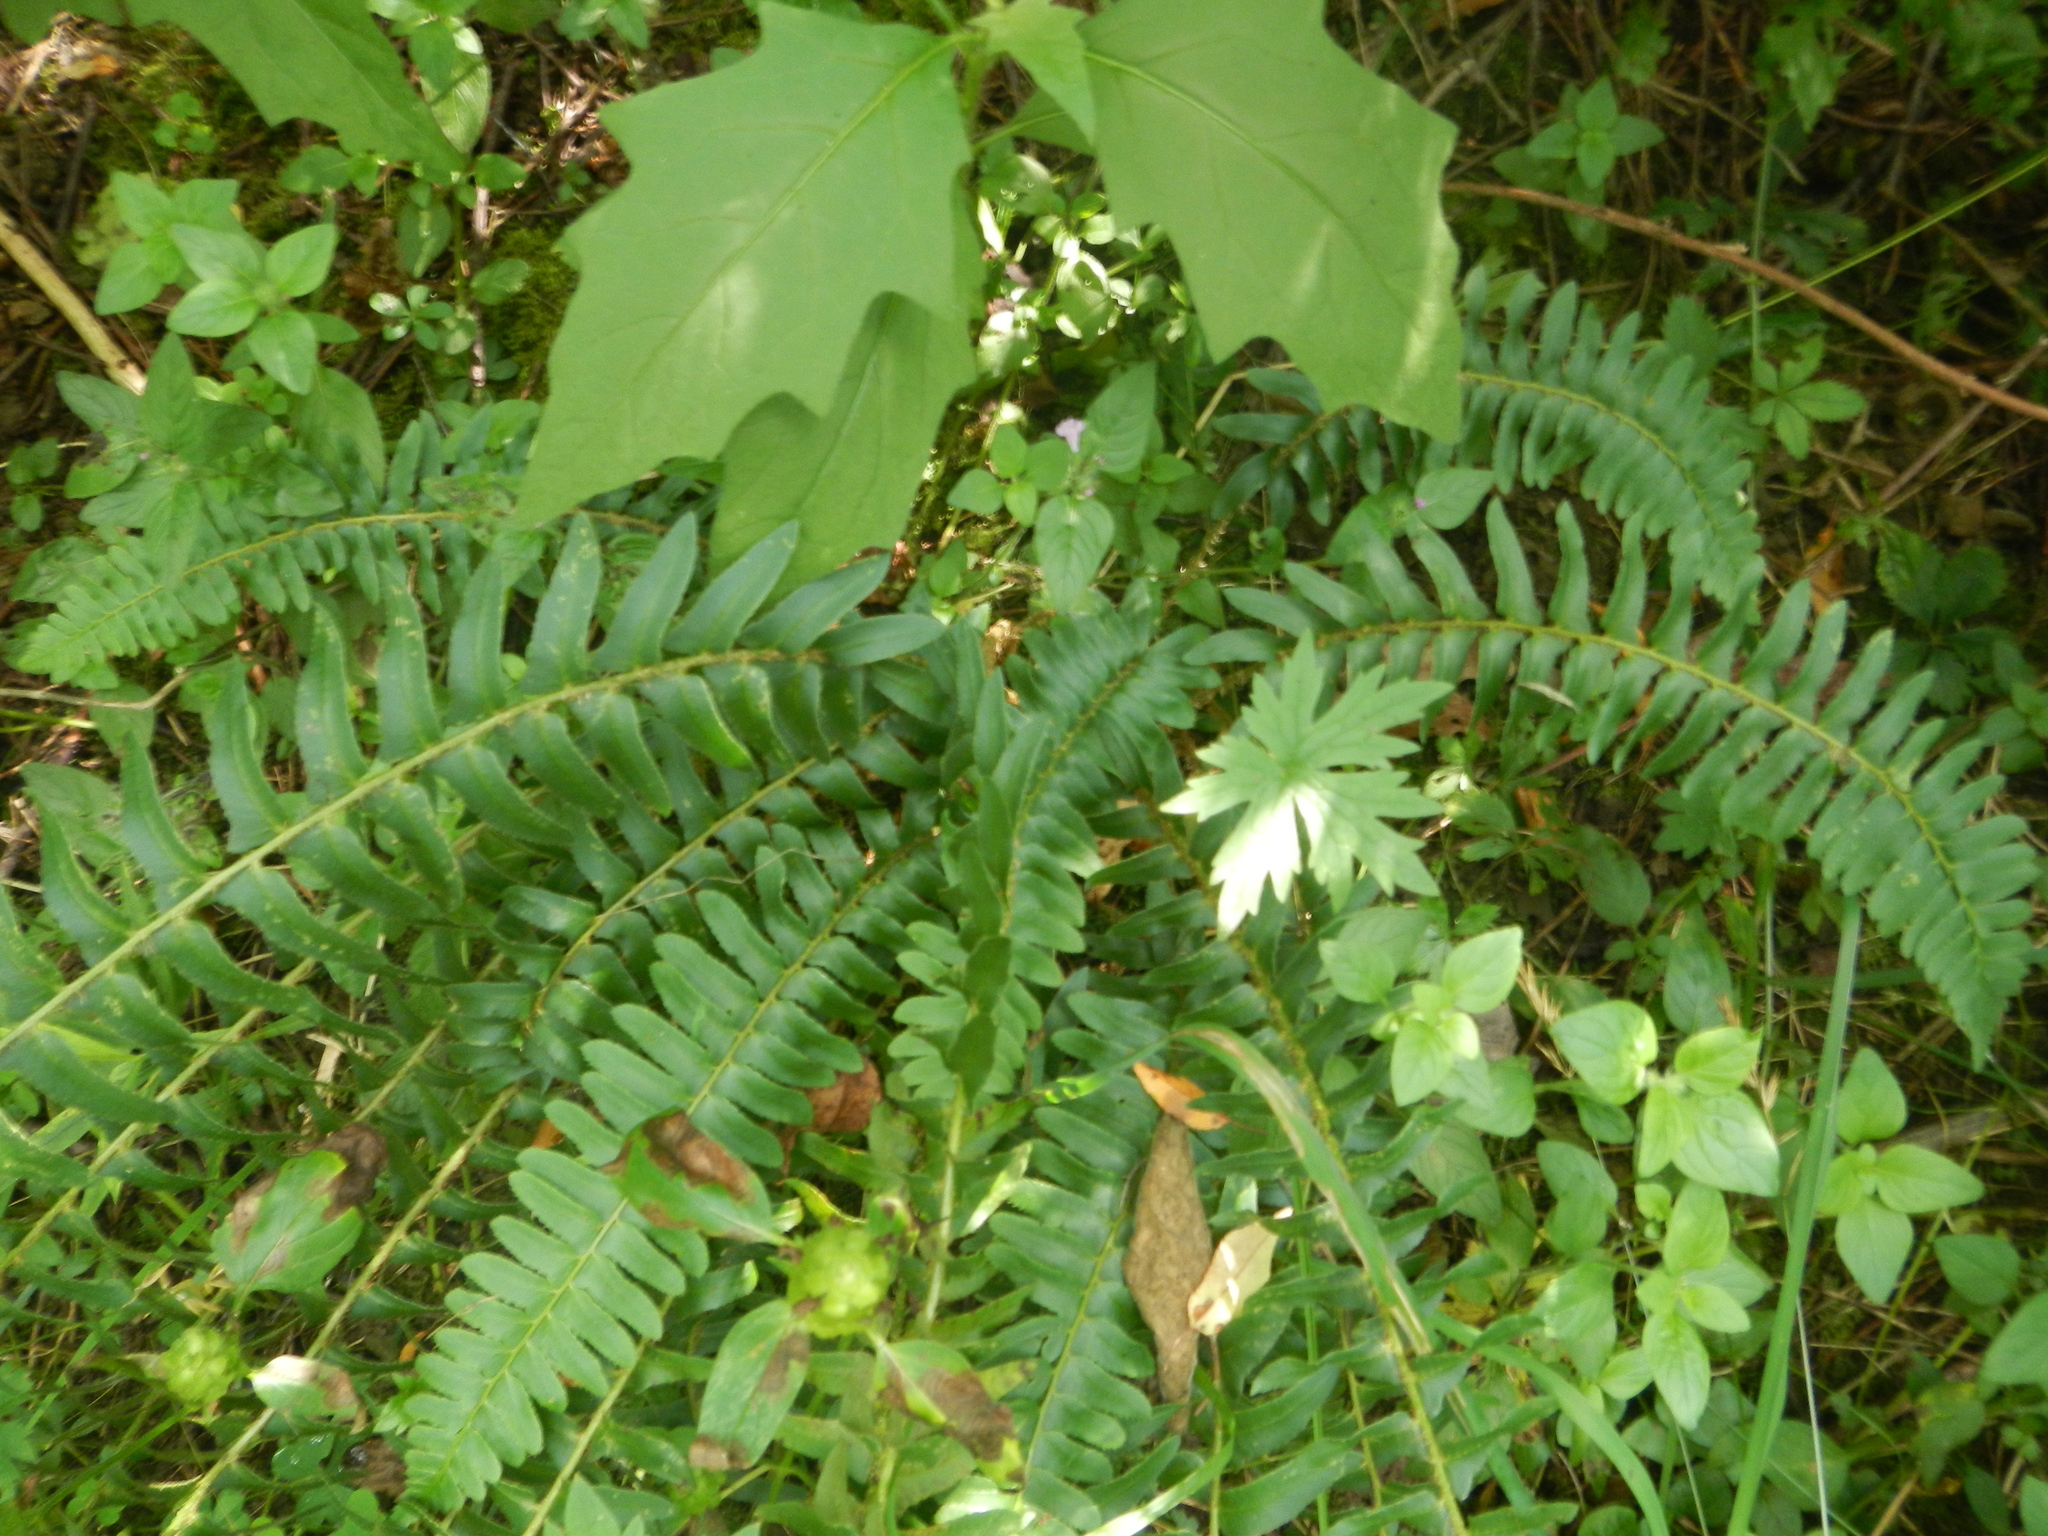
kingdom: Plantae
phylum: Tracheophyta
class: Polypodiopsida
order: Polypodiales
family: Dryopteridaceae
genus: Polystichum
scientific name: Polystichum acrostichoides
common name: Christmas fern
